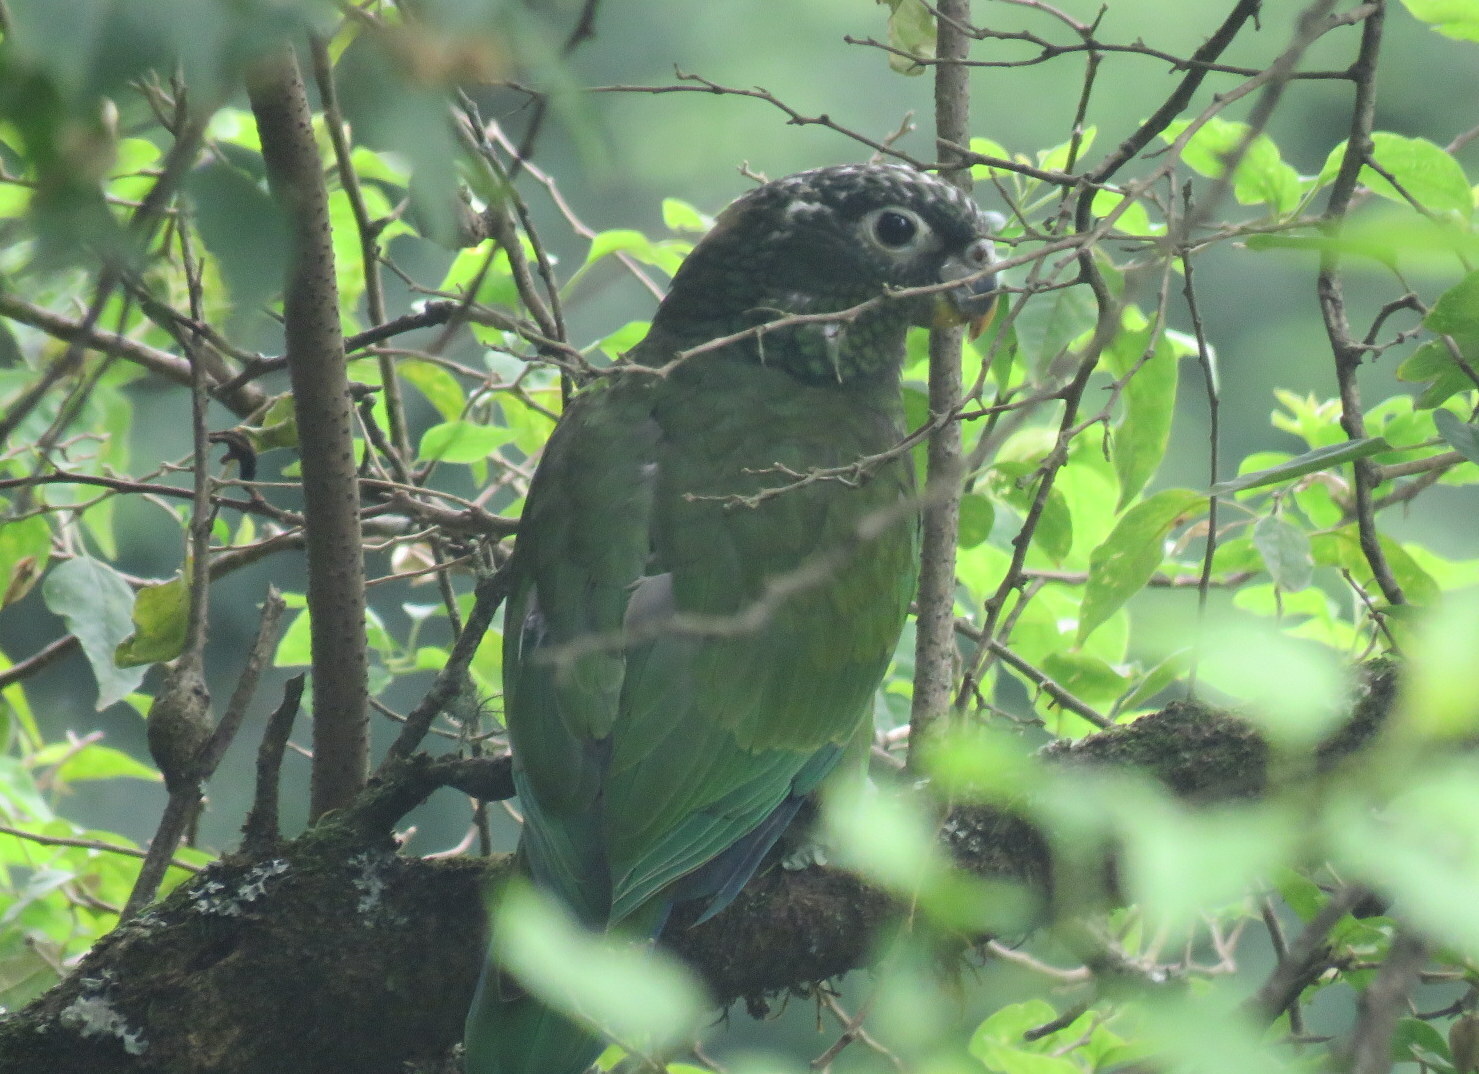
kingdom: Animalia
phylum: Chordata
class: Aves
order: Psittaciformes
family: Psittacidae
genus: Pionus
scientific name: Pionus maximiliani
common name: Scaly-headed parrot
